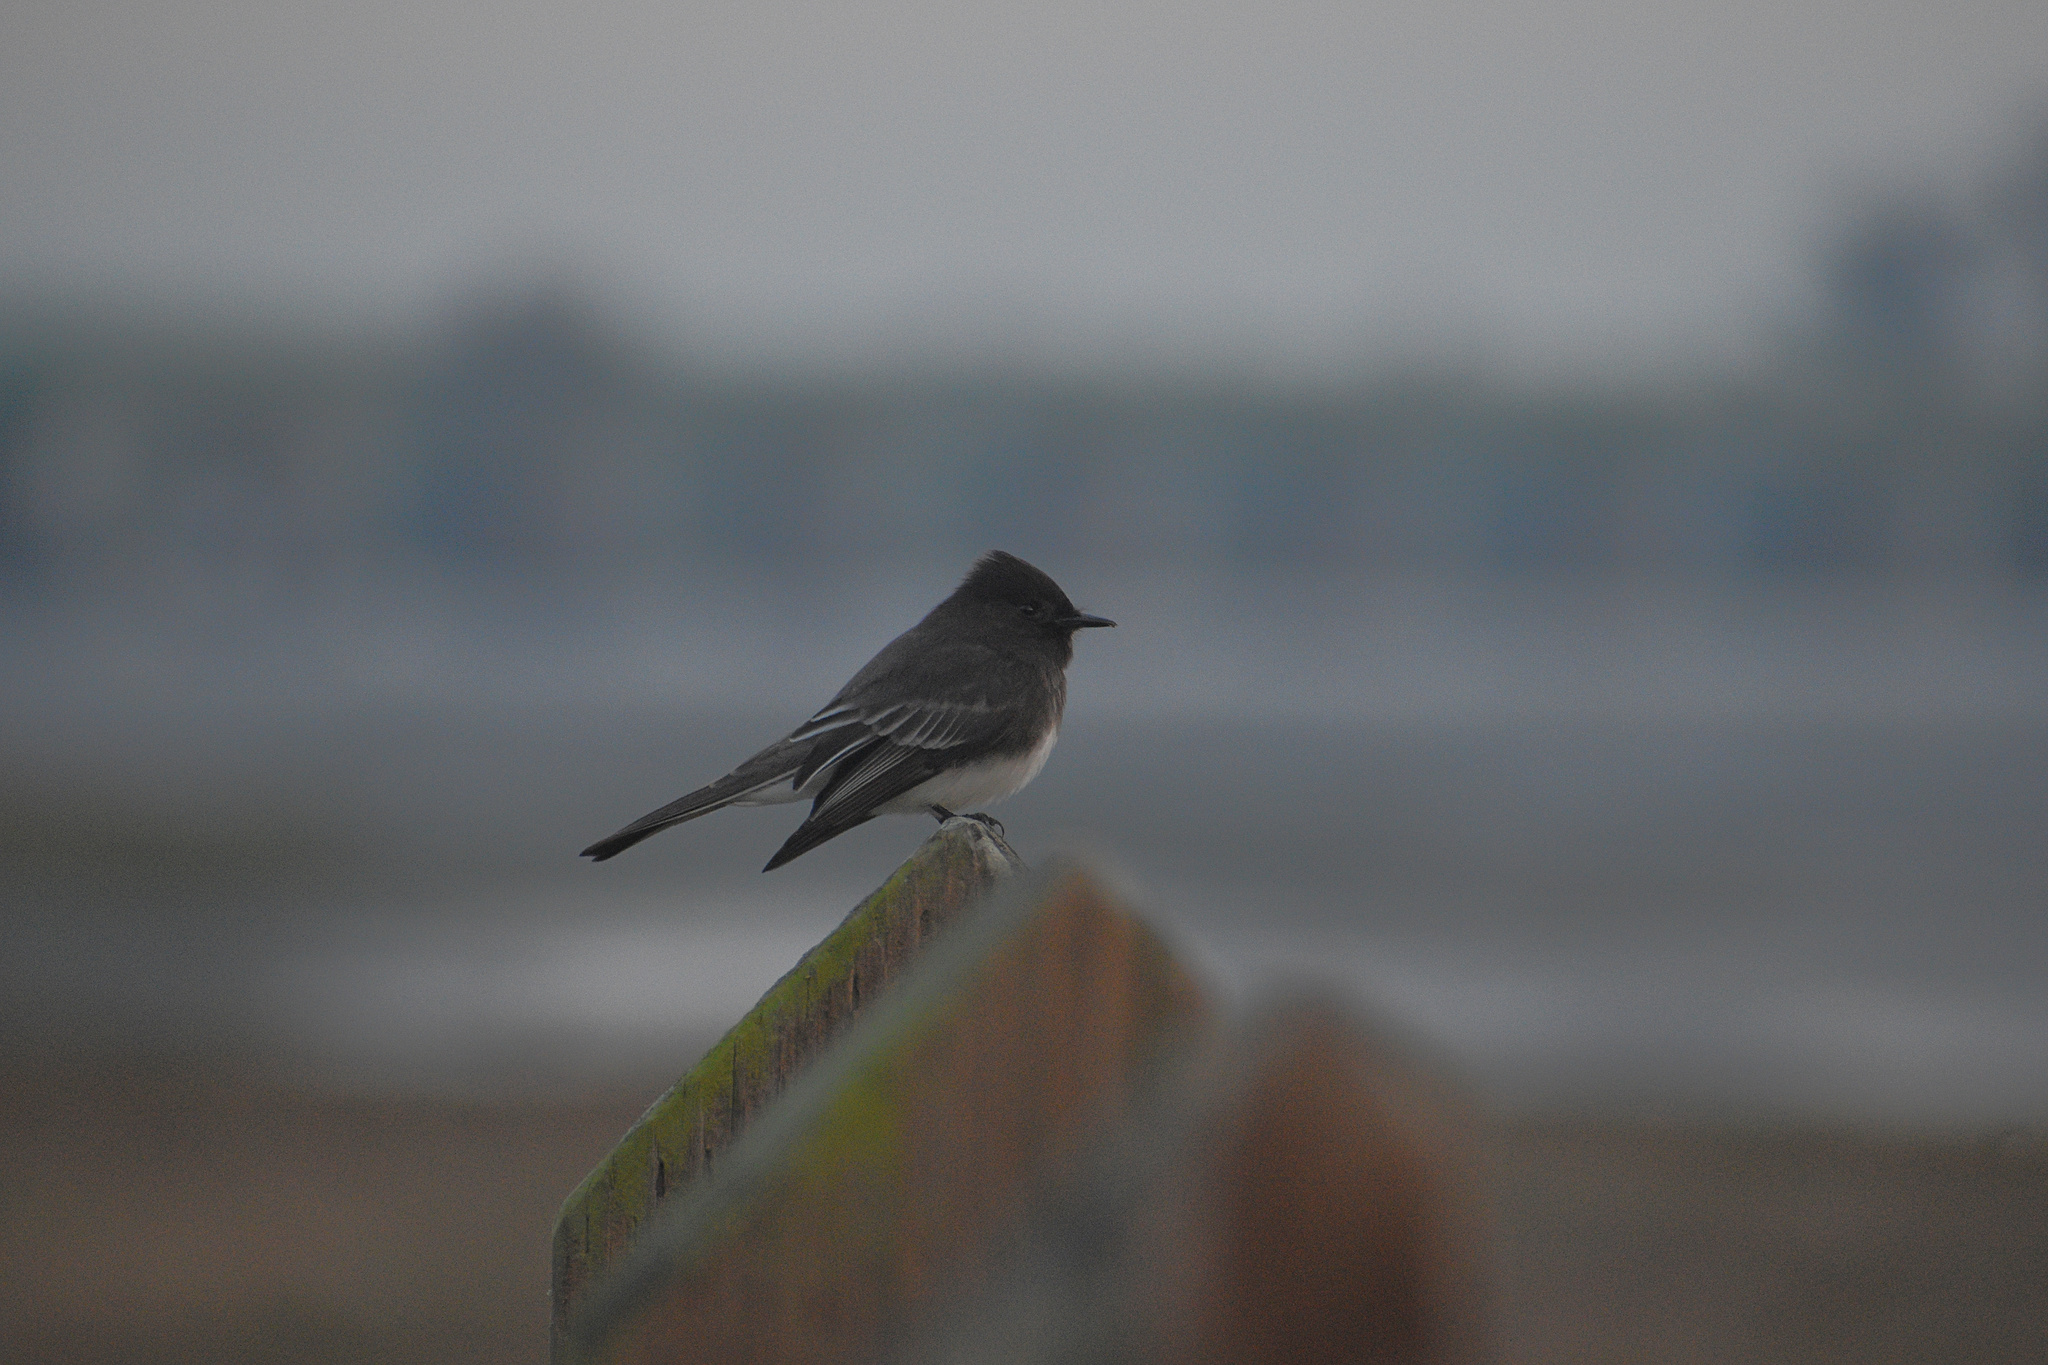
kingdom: Animalia
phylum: Chordata
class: Aves
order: Passeriformes
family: Tyrannidae
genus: Sayornis
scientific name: Sayornis nigricans
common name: Black phoebe
